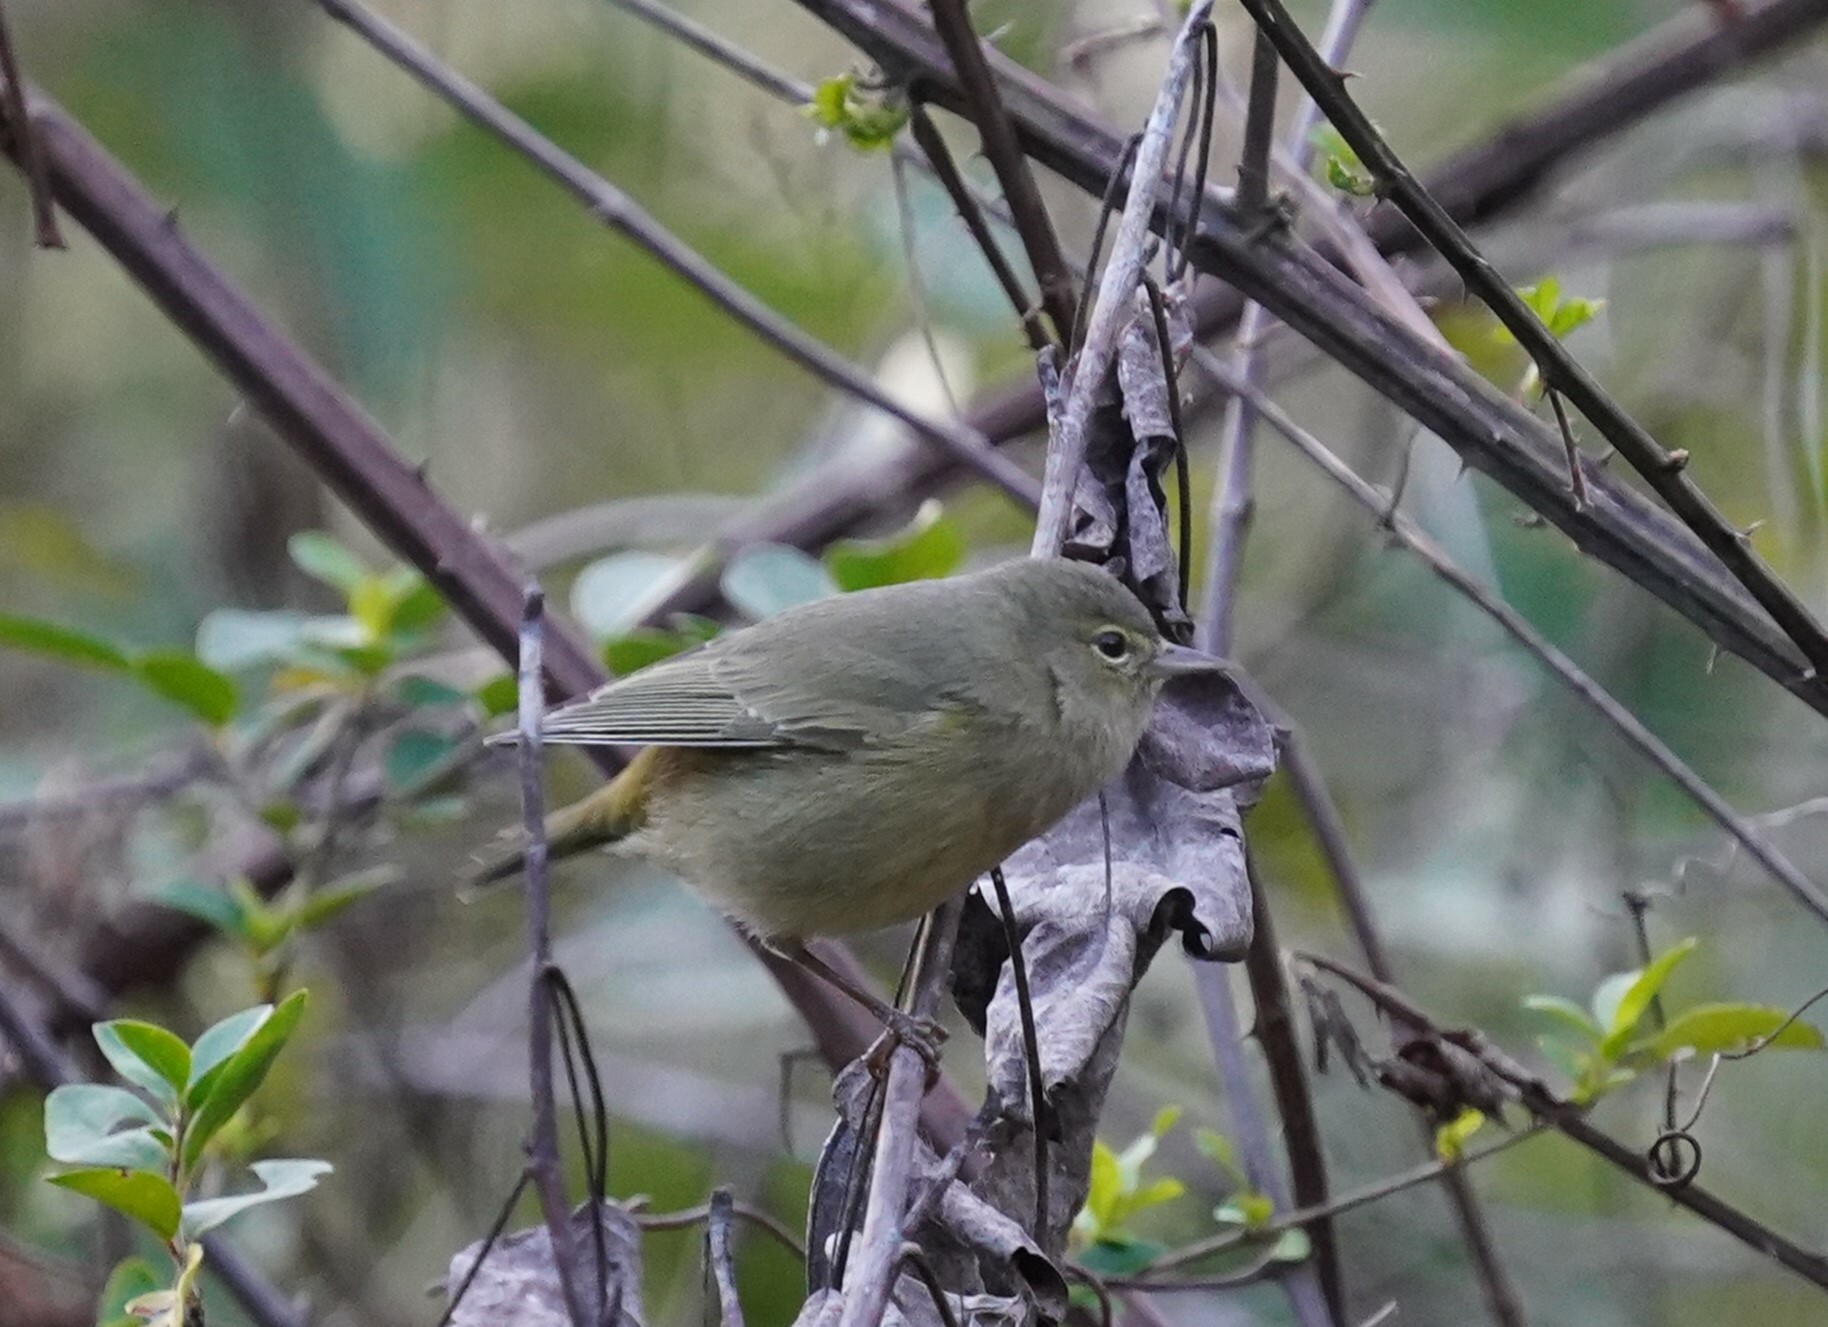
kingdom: Animalia
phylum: Chordata
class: Aves
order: Passeriformes
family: Parulidae
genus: Leiothlypis
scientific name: Leiothlypis celata
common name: Orange-crowned warbler
